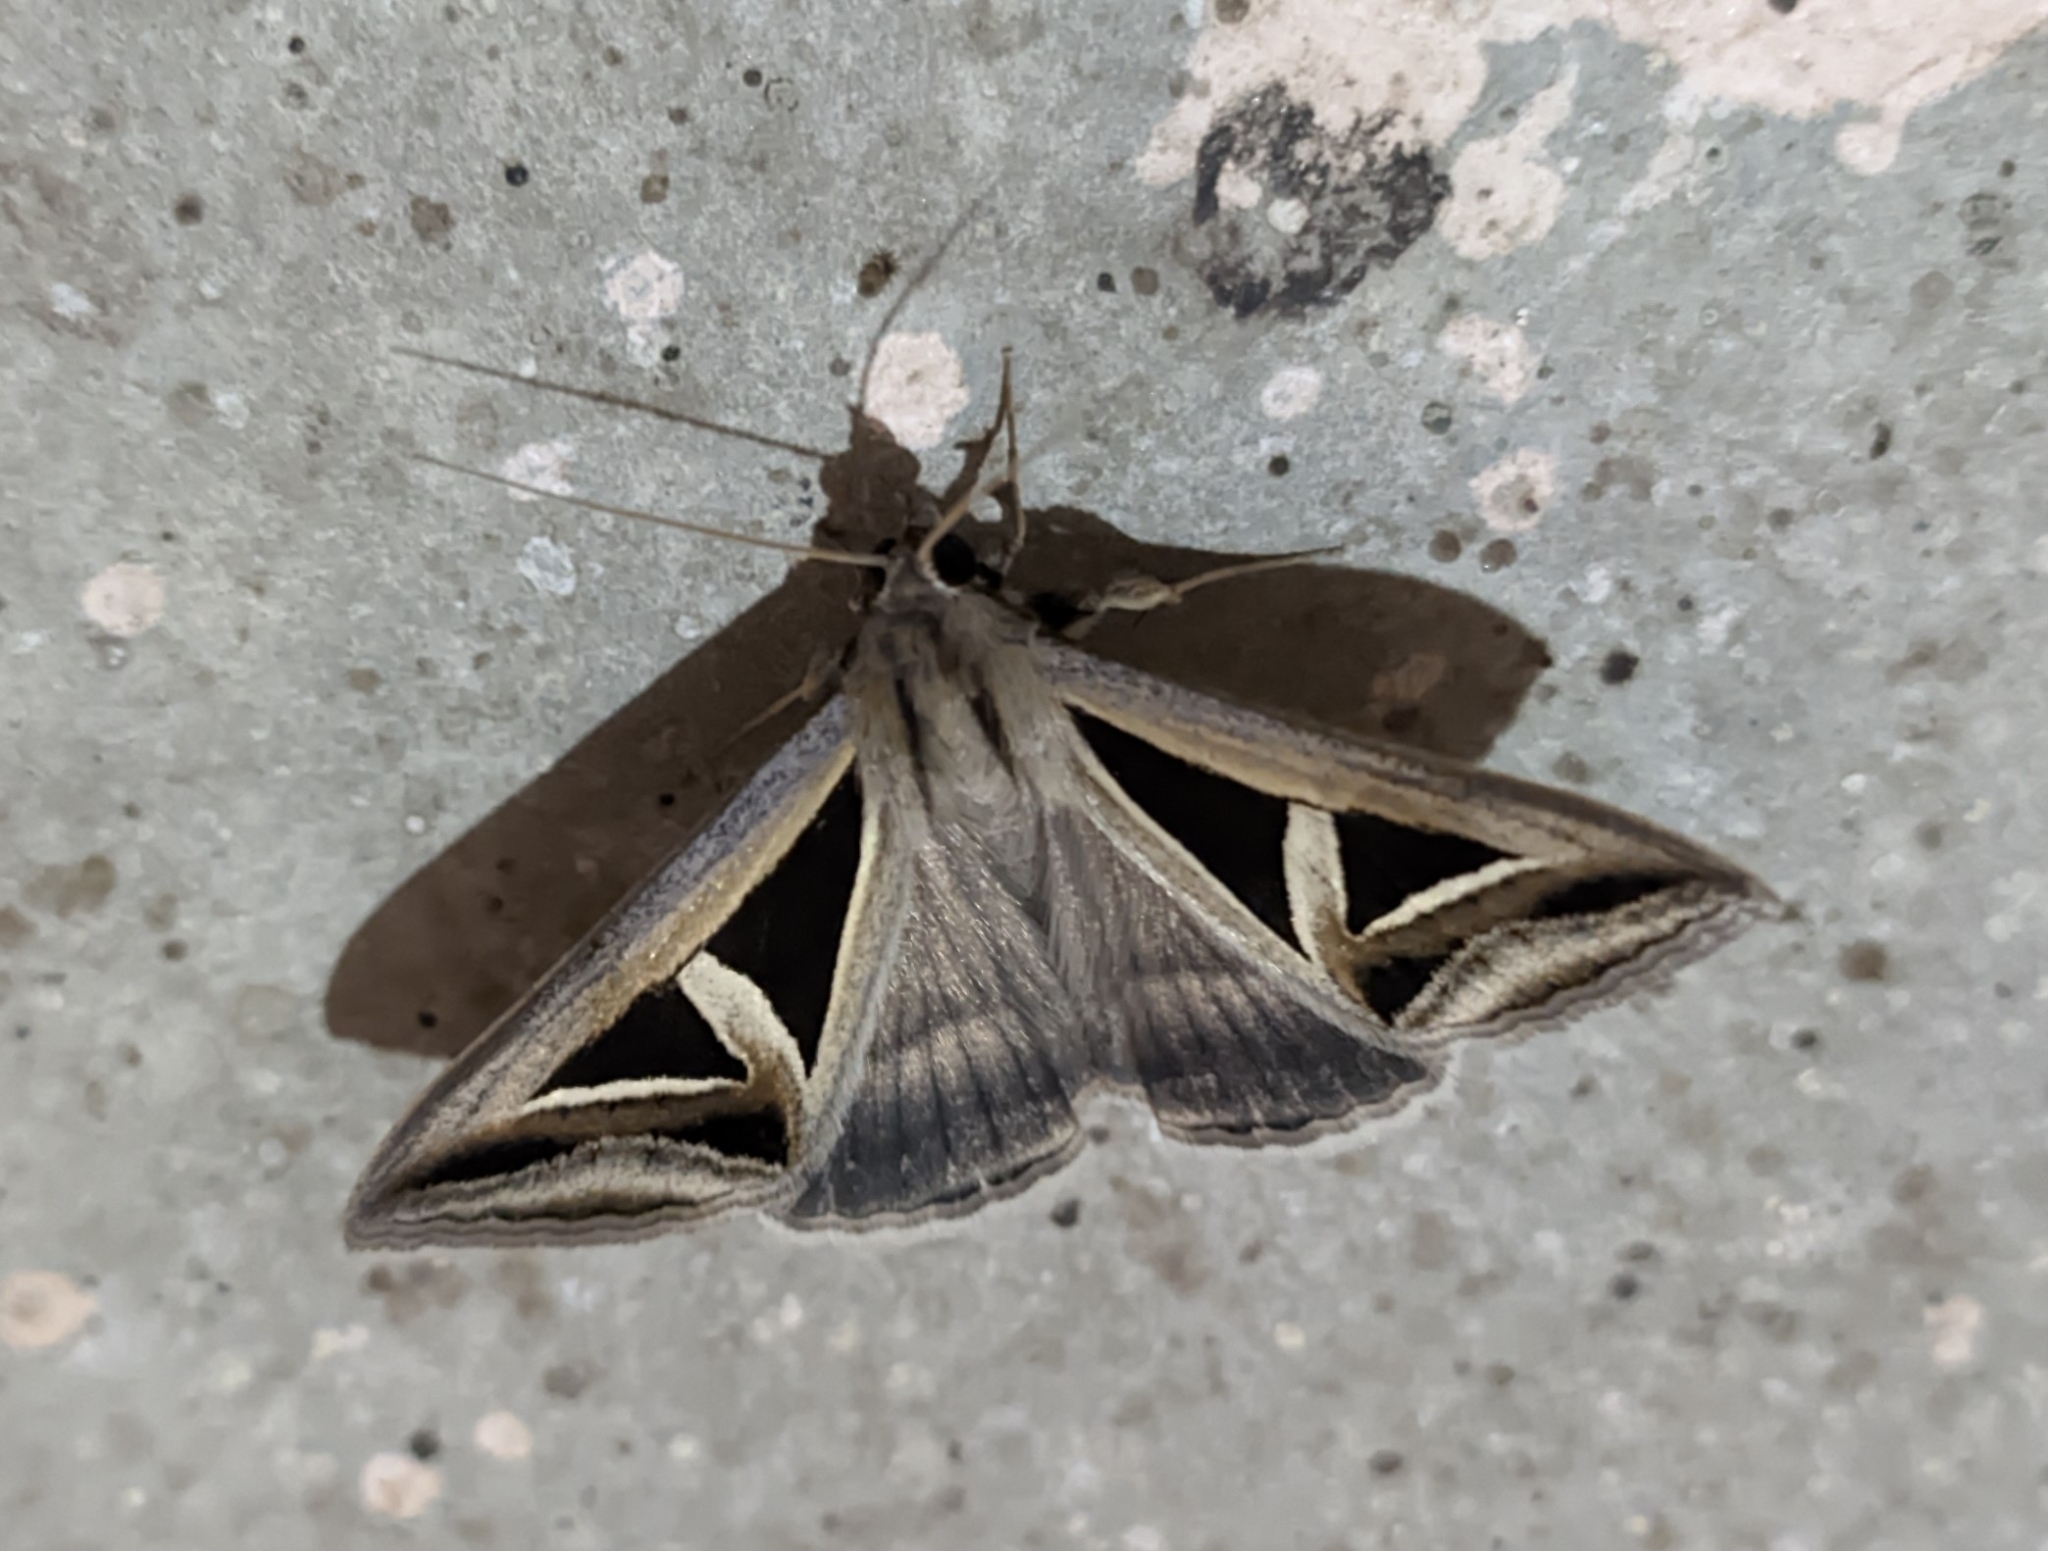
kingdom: Animalia
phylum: Arthropoda
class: Insecta
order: Lepidoptera
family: Erebidae
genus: Trigonodes
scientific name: Trigonodes hyppasia
